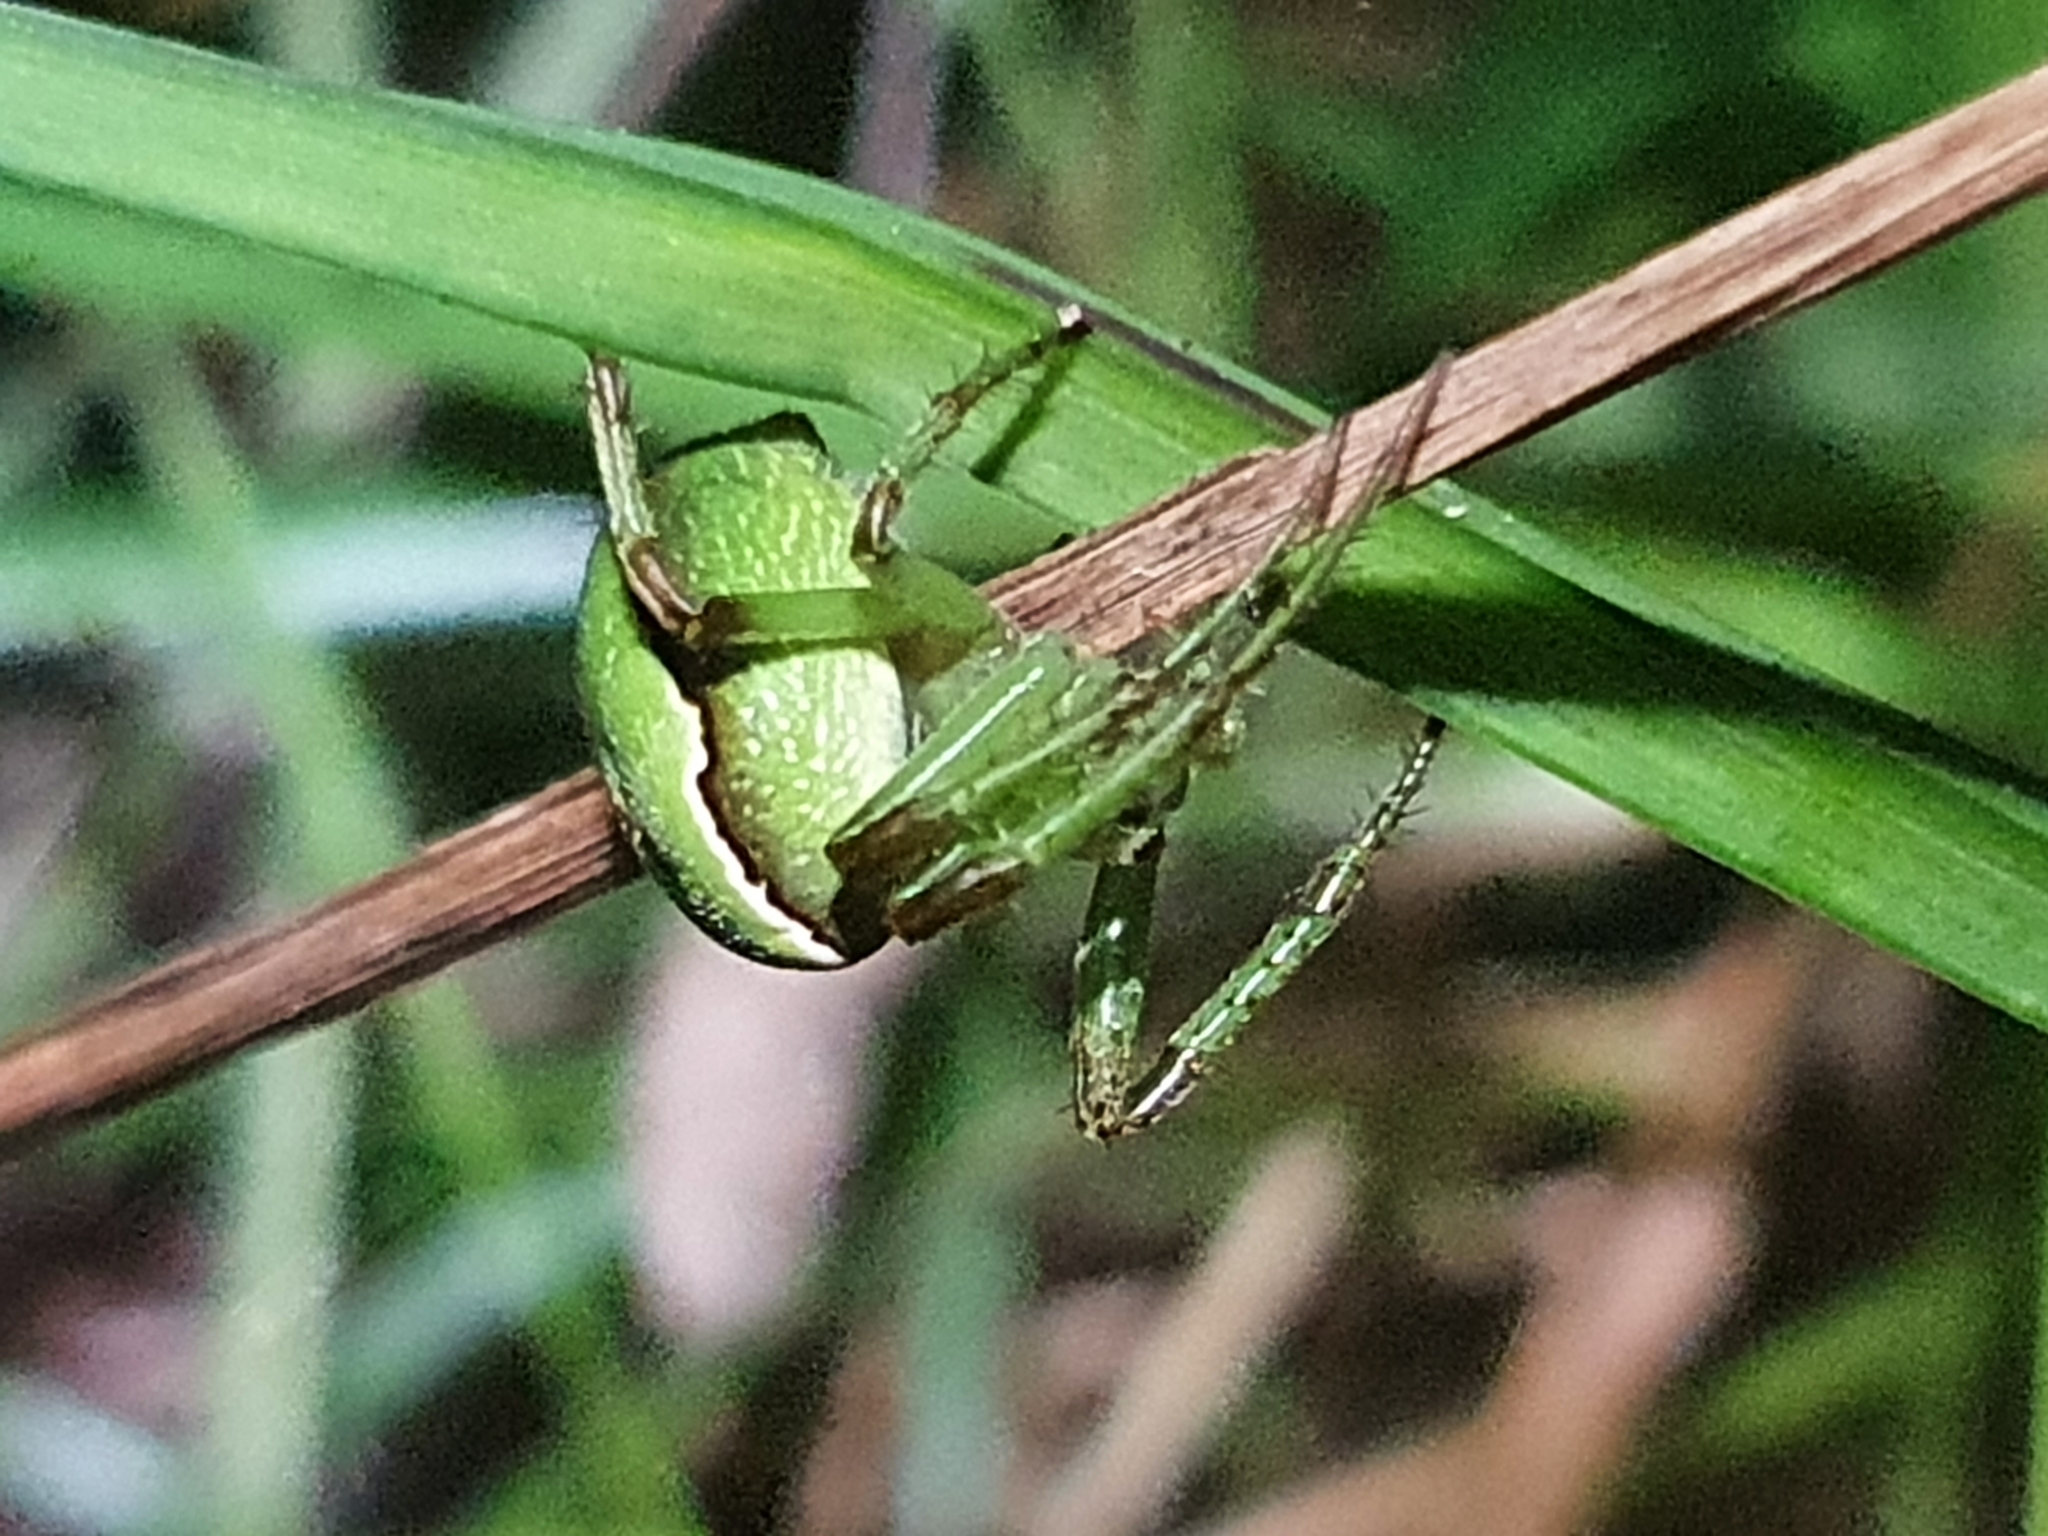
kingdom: Animalia
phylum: Arthropoda
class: Arachnida
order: Araneae
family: Araneidae
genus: Colaranea
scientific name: Colaranea viriditas
